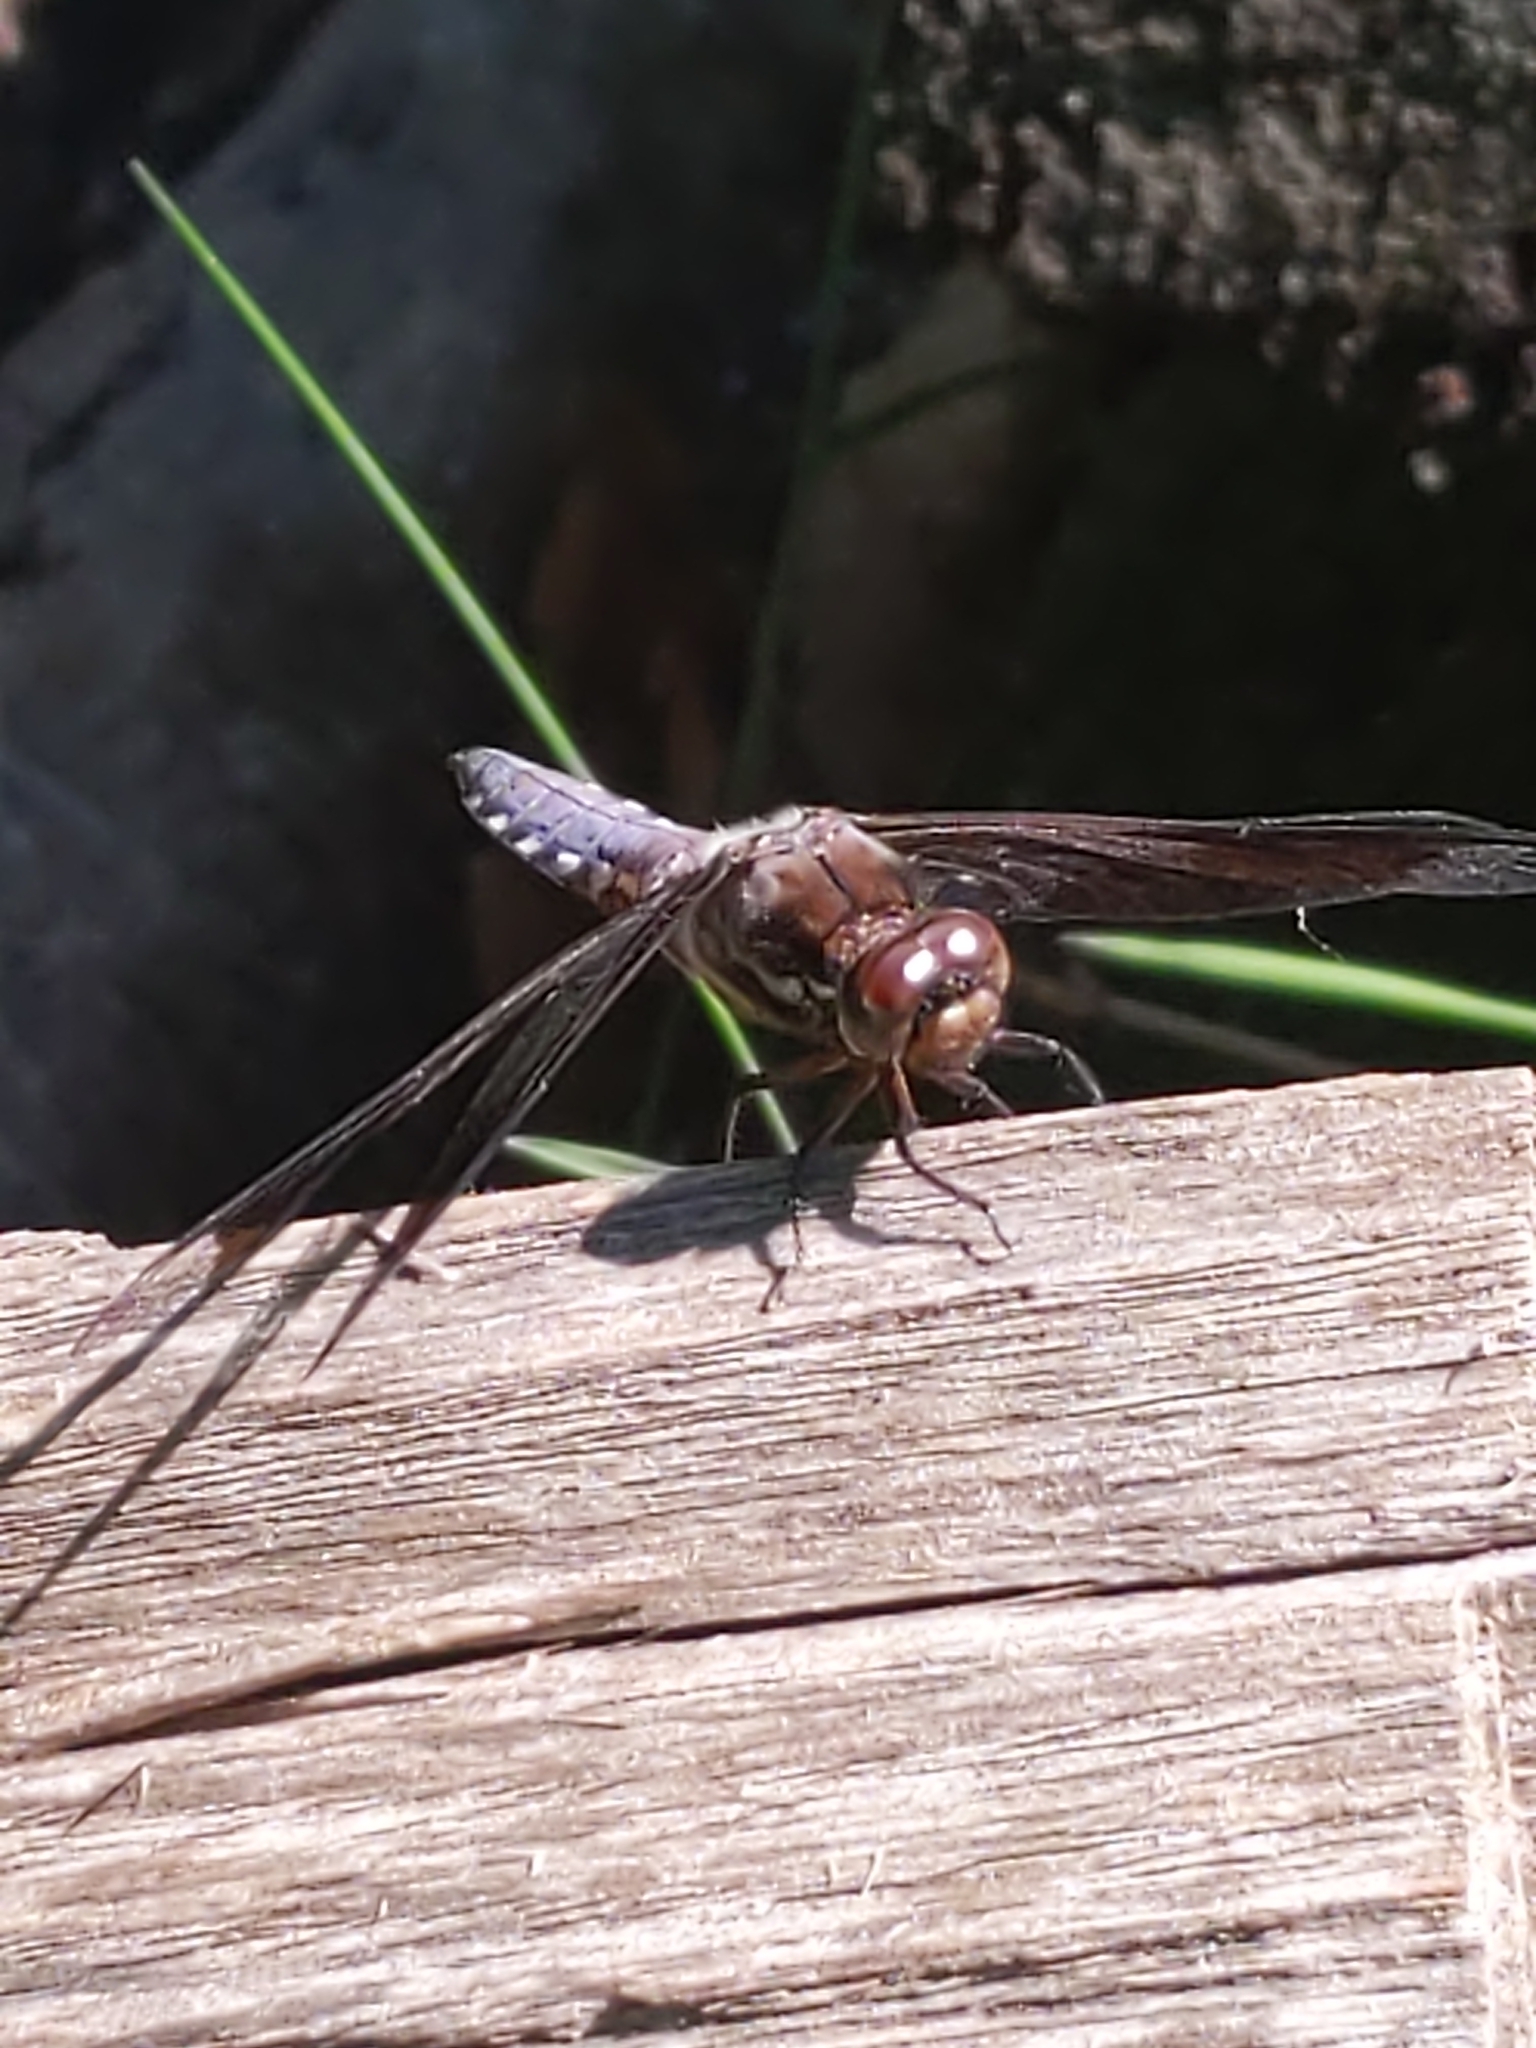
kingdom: Animalia
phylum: Arthropoda
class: Insecta
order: Odonata
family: Libellulidae
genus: Plathemis
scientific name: Plathemis lydia
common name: Common whitetail
